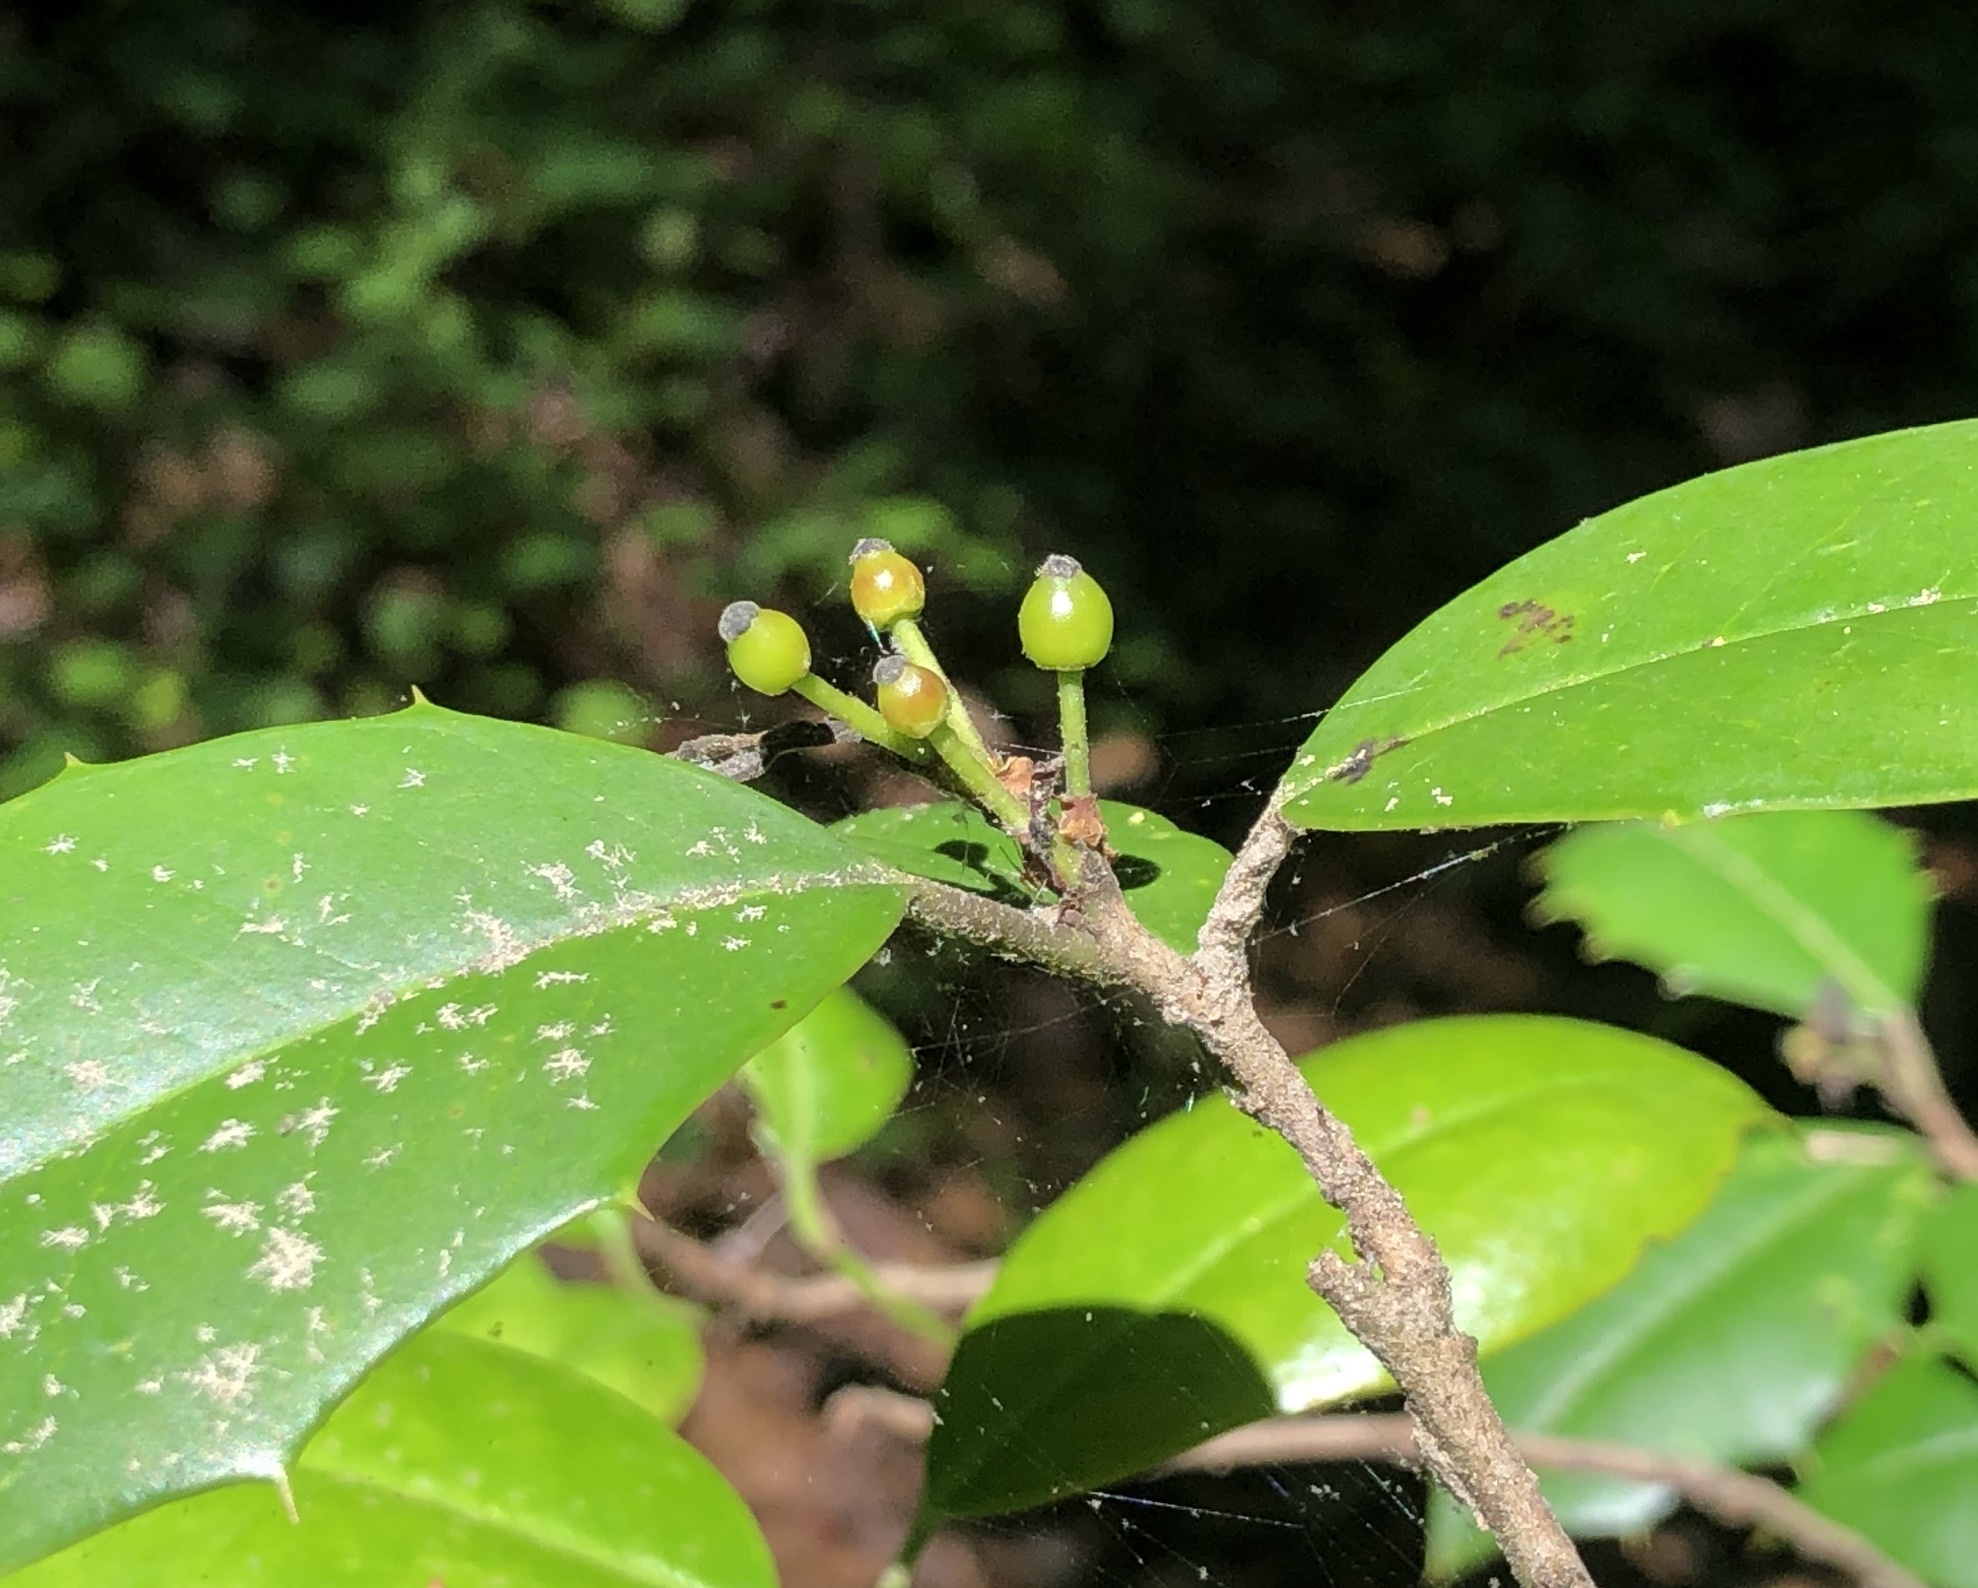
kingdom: Plantae
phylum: Tracheophyta
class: Magnoliopsida
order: Aquifoliales
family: Aquifoliaceae
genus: Ilex
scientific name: Ilex opaca
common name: American holly
